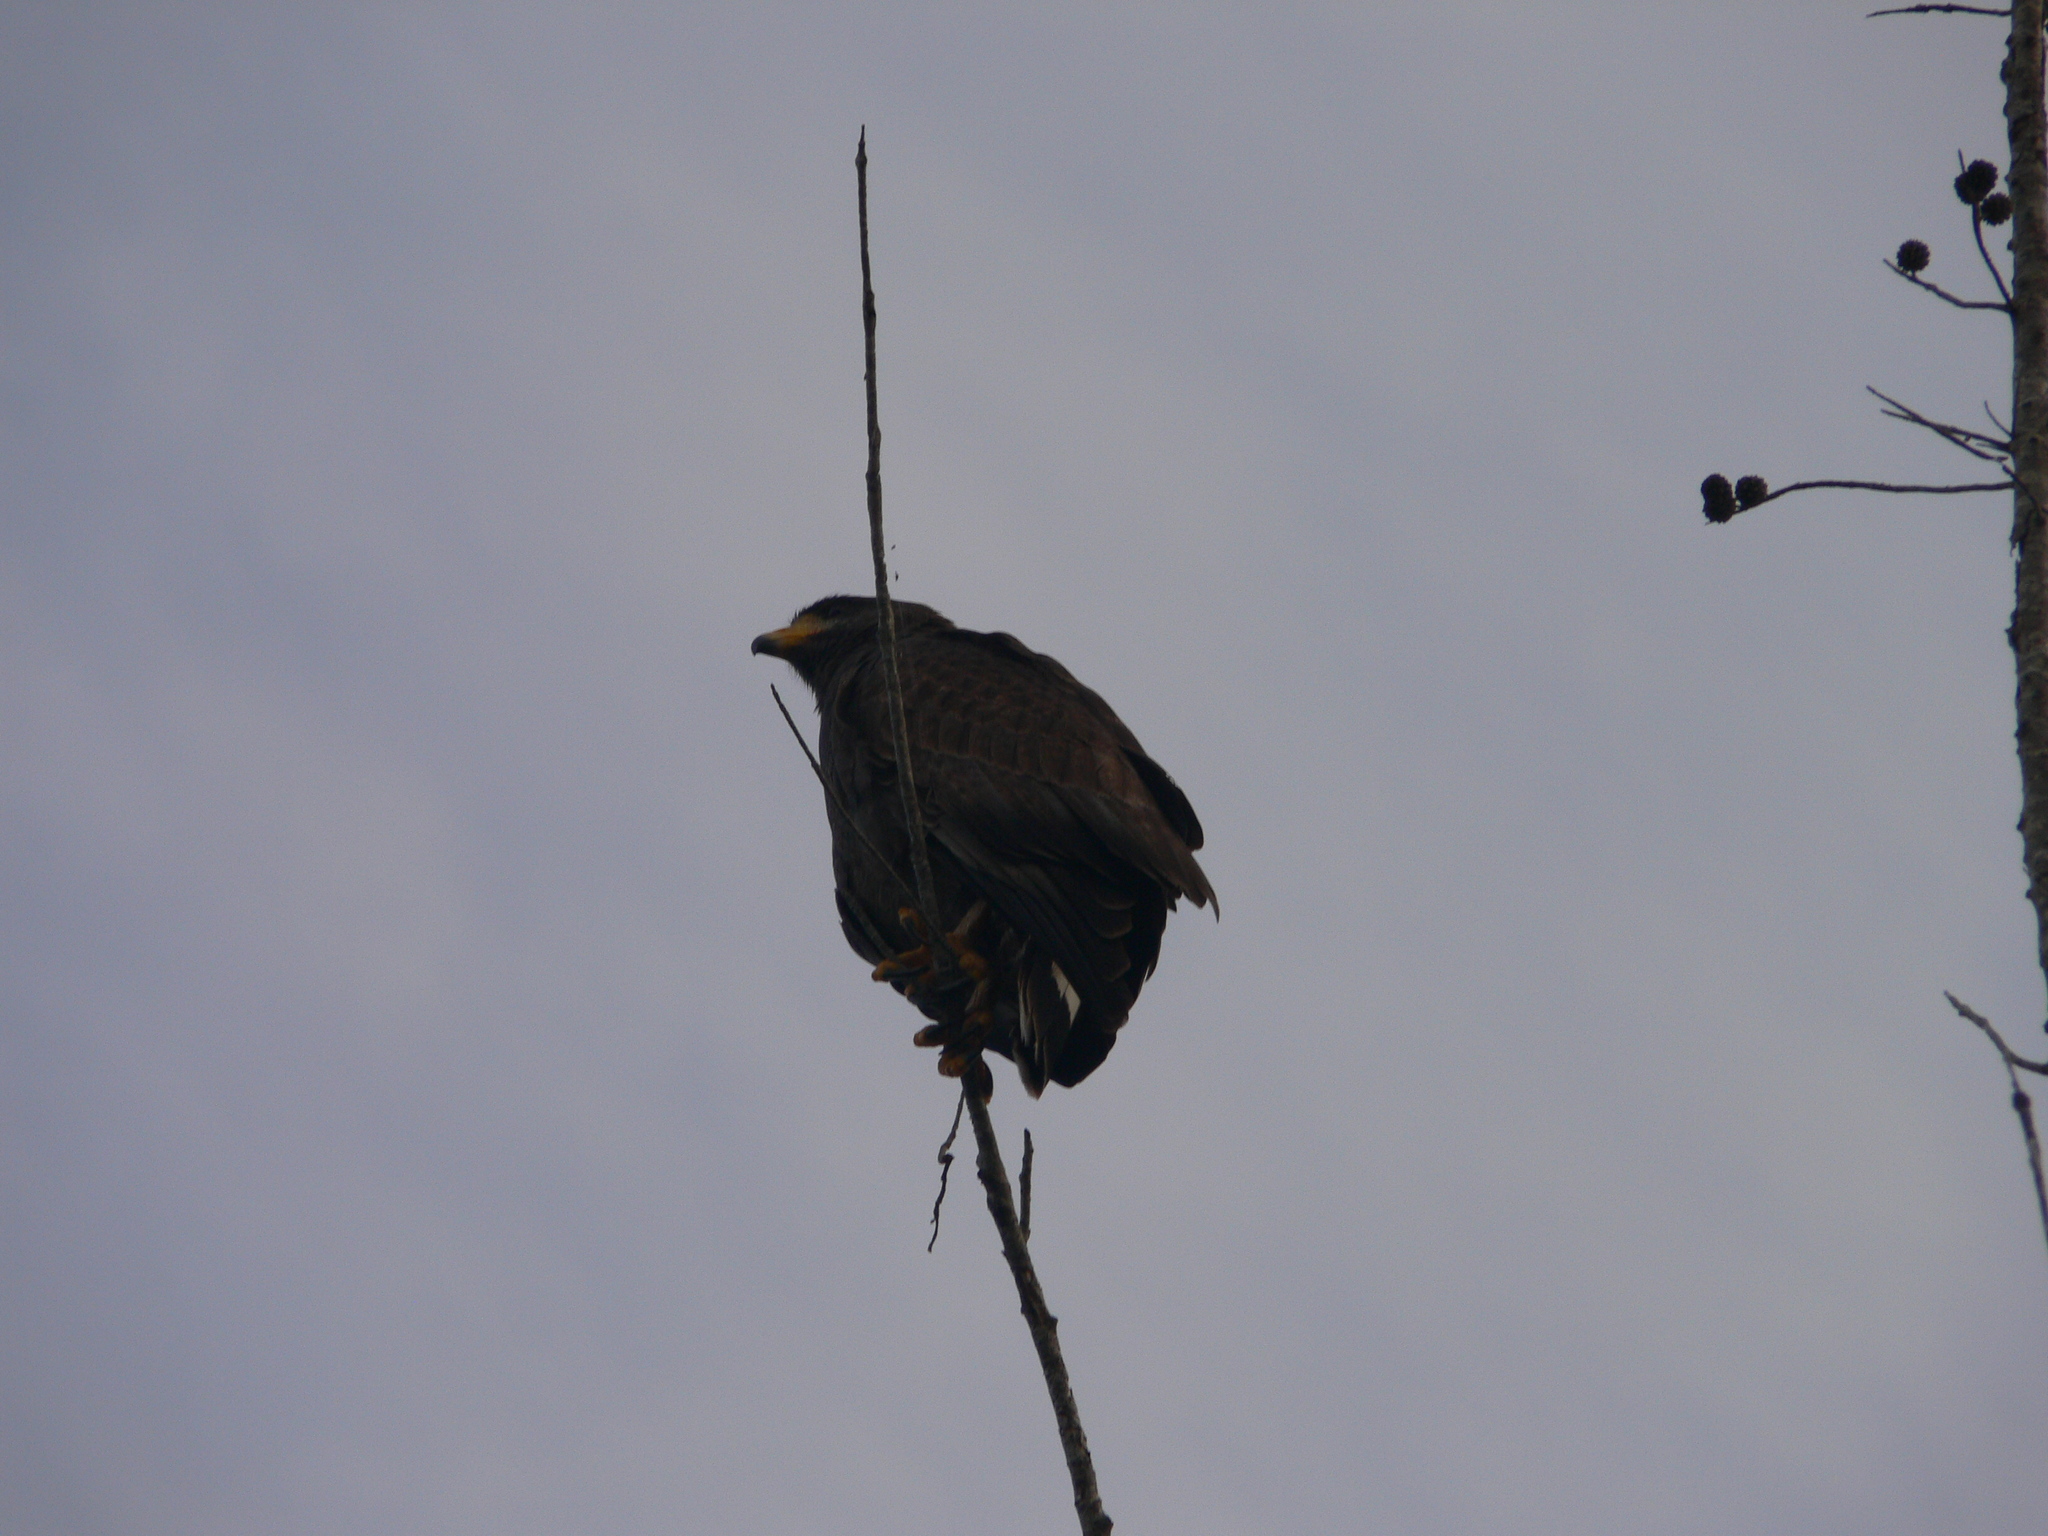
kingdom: Animalia
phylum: Chordata
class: Aves
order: Accipitriformes
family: Accipitridae
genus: Buteogallus
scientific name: Buteogallus gundlachii
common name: Cuban black hawk
